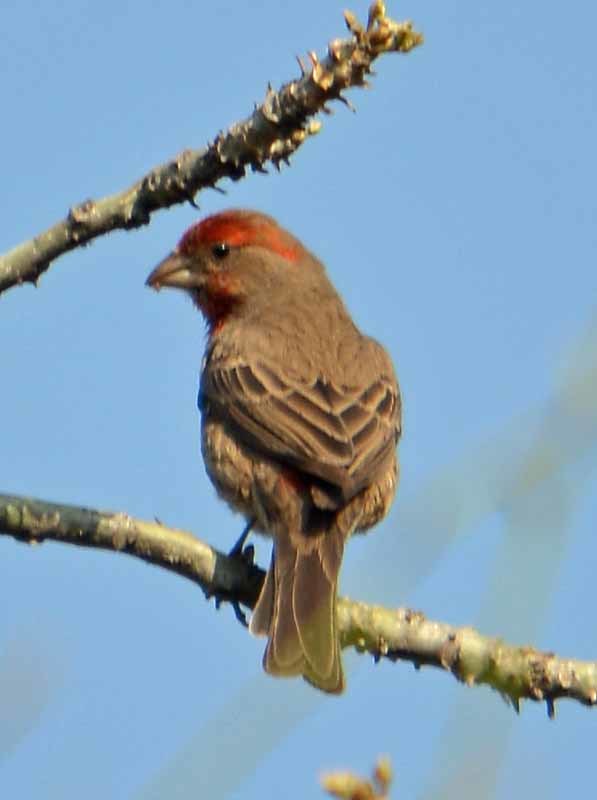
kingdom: Animalia
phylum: Chordata
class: Aves
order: Passeriformes
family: Fringillidae
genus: Haemorhous
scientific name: Haemorhous mexicanus
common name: House finch
